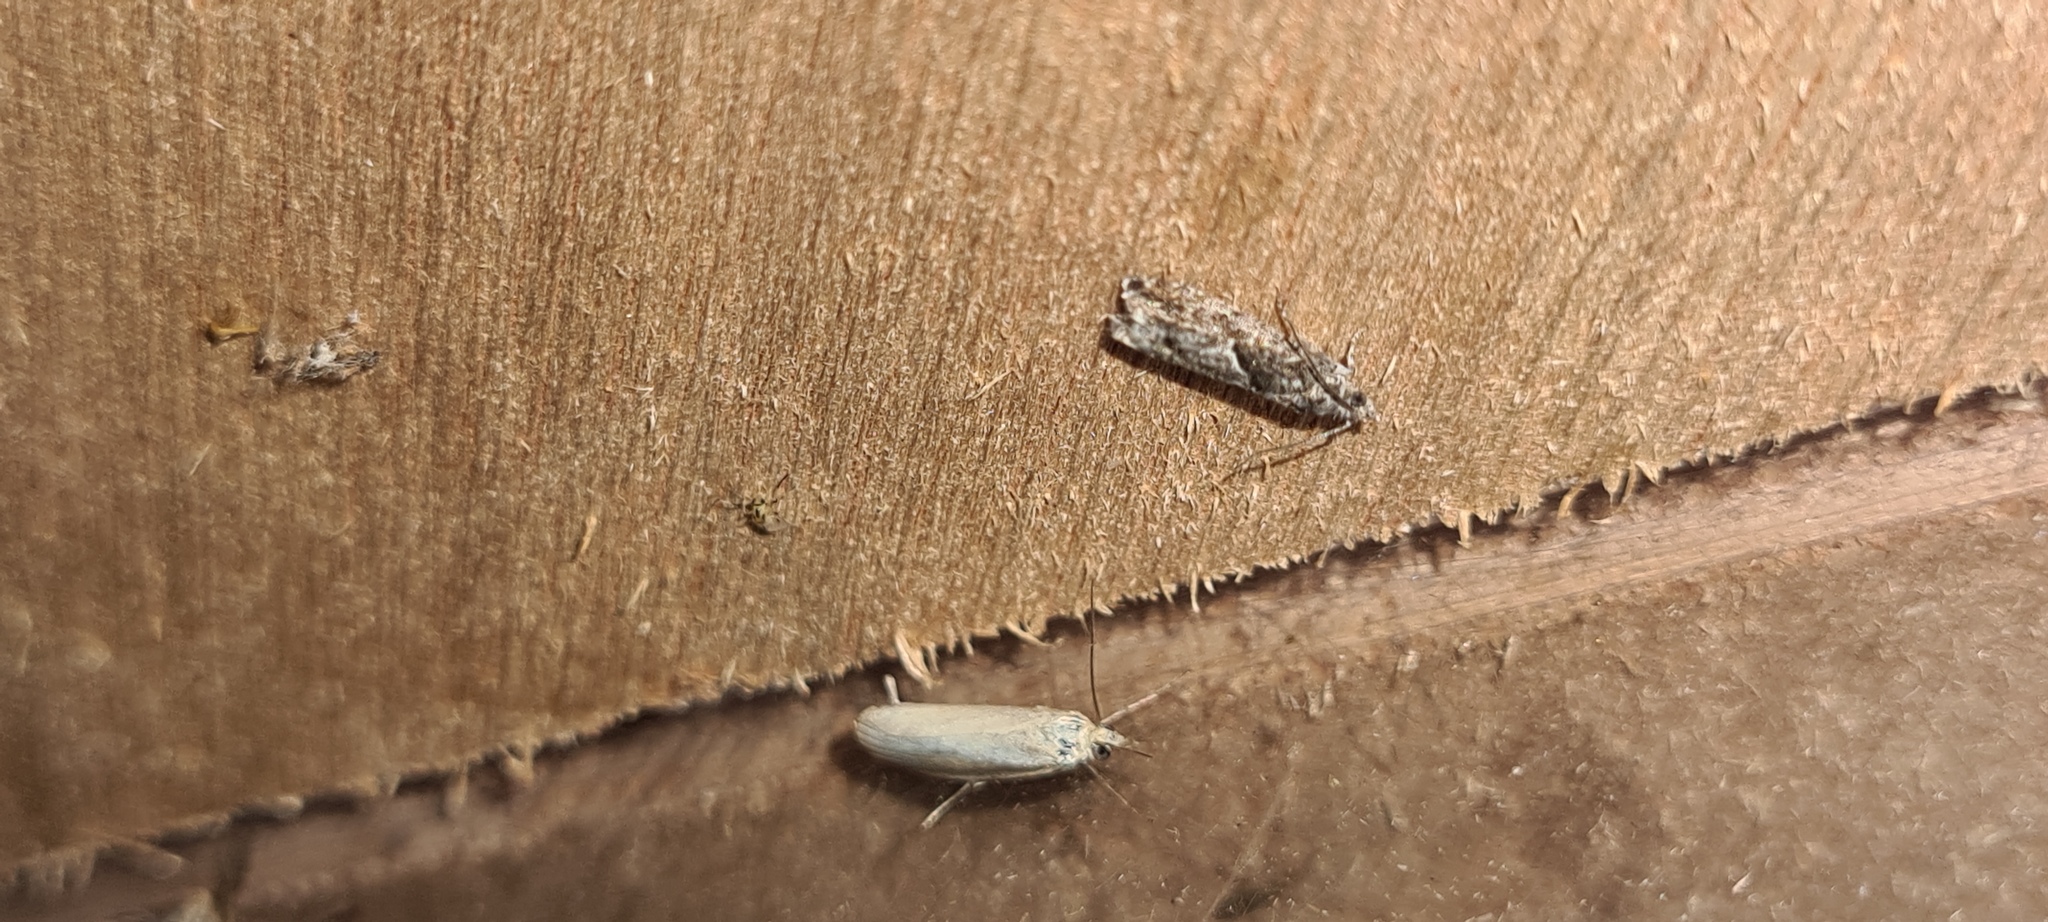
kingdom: Animalia
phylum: Arthropoda
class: Insecta
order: Lepidoptera
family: Pyralidae
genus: Oncocera
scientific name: Oncocera semirubella
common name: Rosy-striped knot-horn
